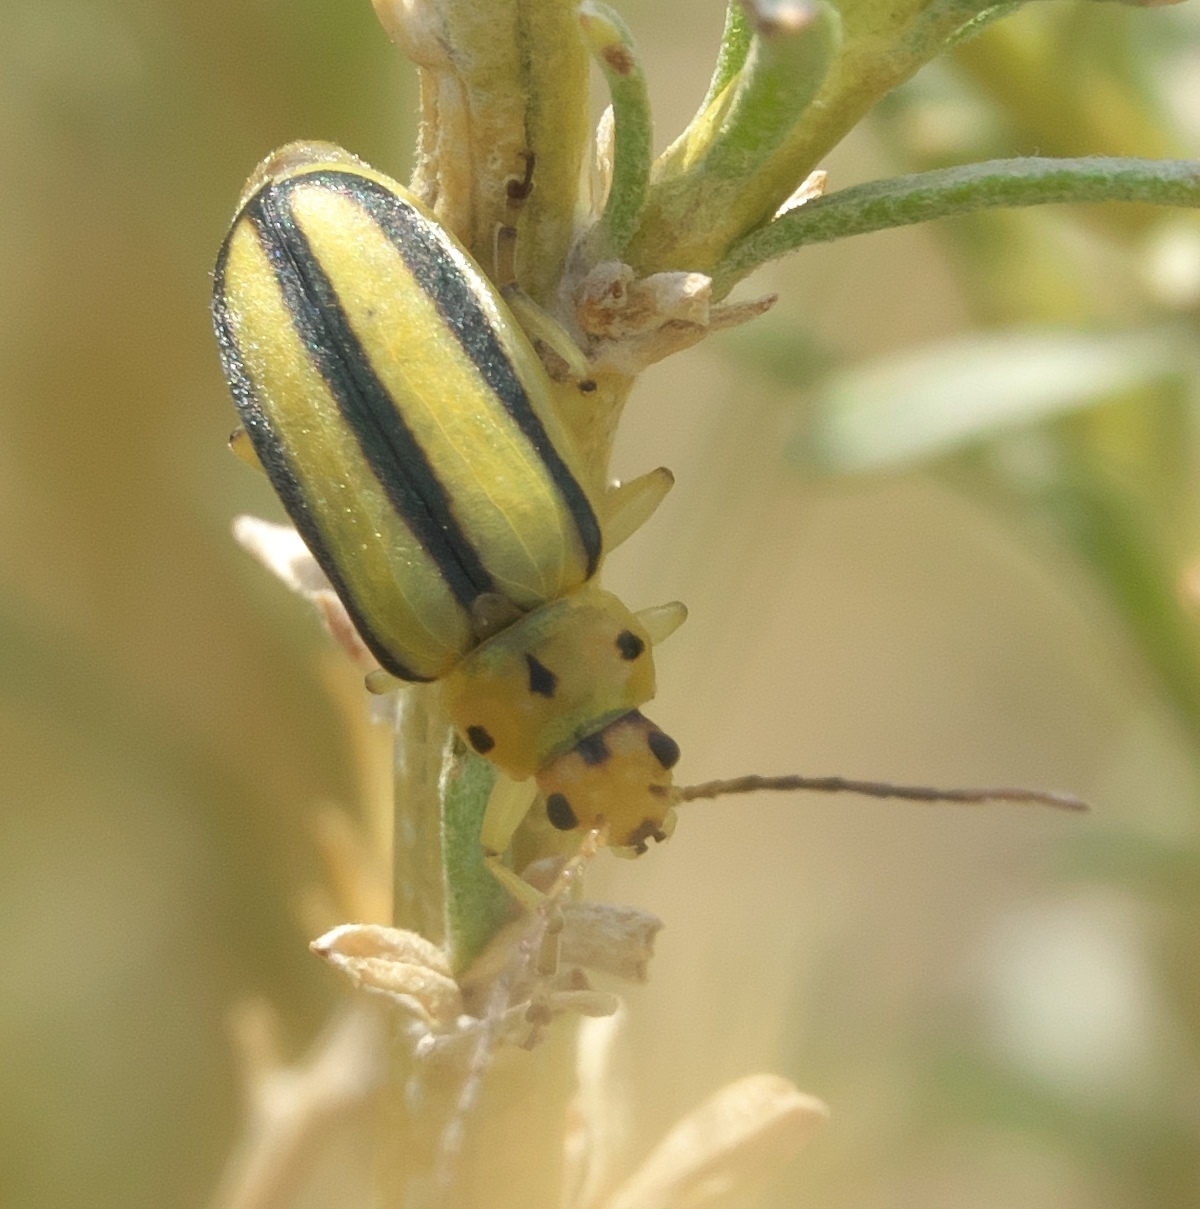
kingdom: Animalia
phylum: Arthropoda
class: Insecta
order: Coleoptera
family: Chrysomelidae
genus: Trirhabda
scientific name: Trirhabda nitidicollis
